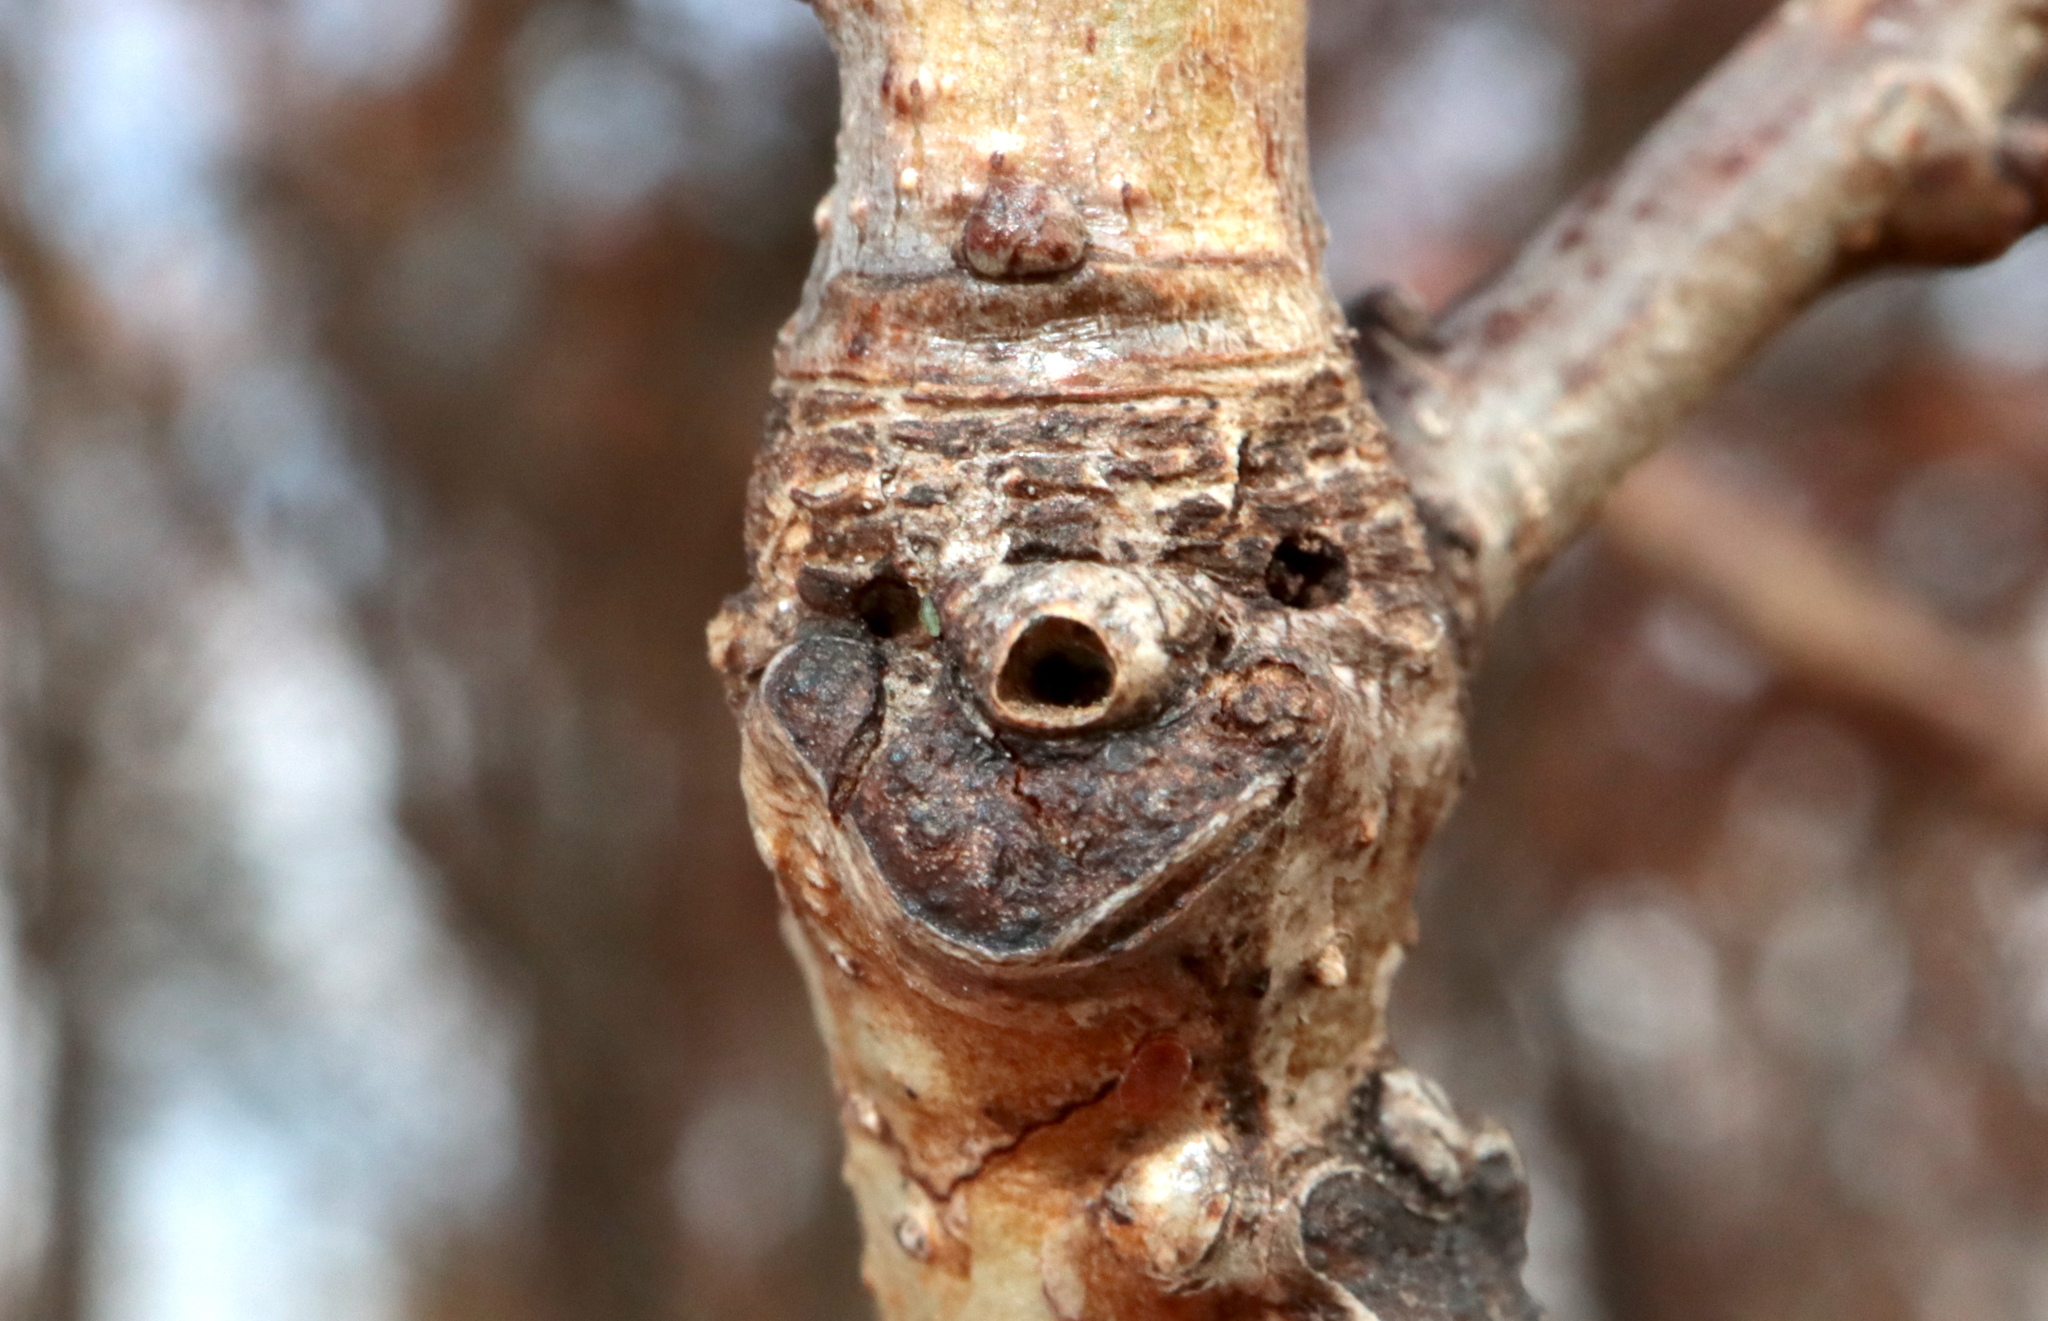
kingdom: Animalia
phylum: Arthropoda
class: Insecta
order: Hymenoptera
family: Cynipidae
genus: Neuroterus
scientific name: Neuroterus
